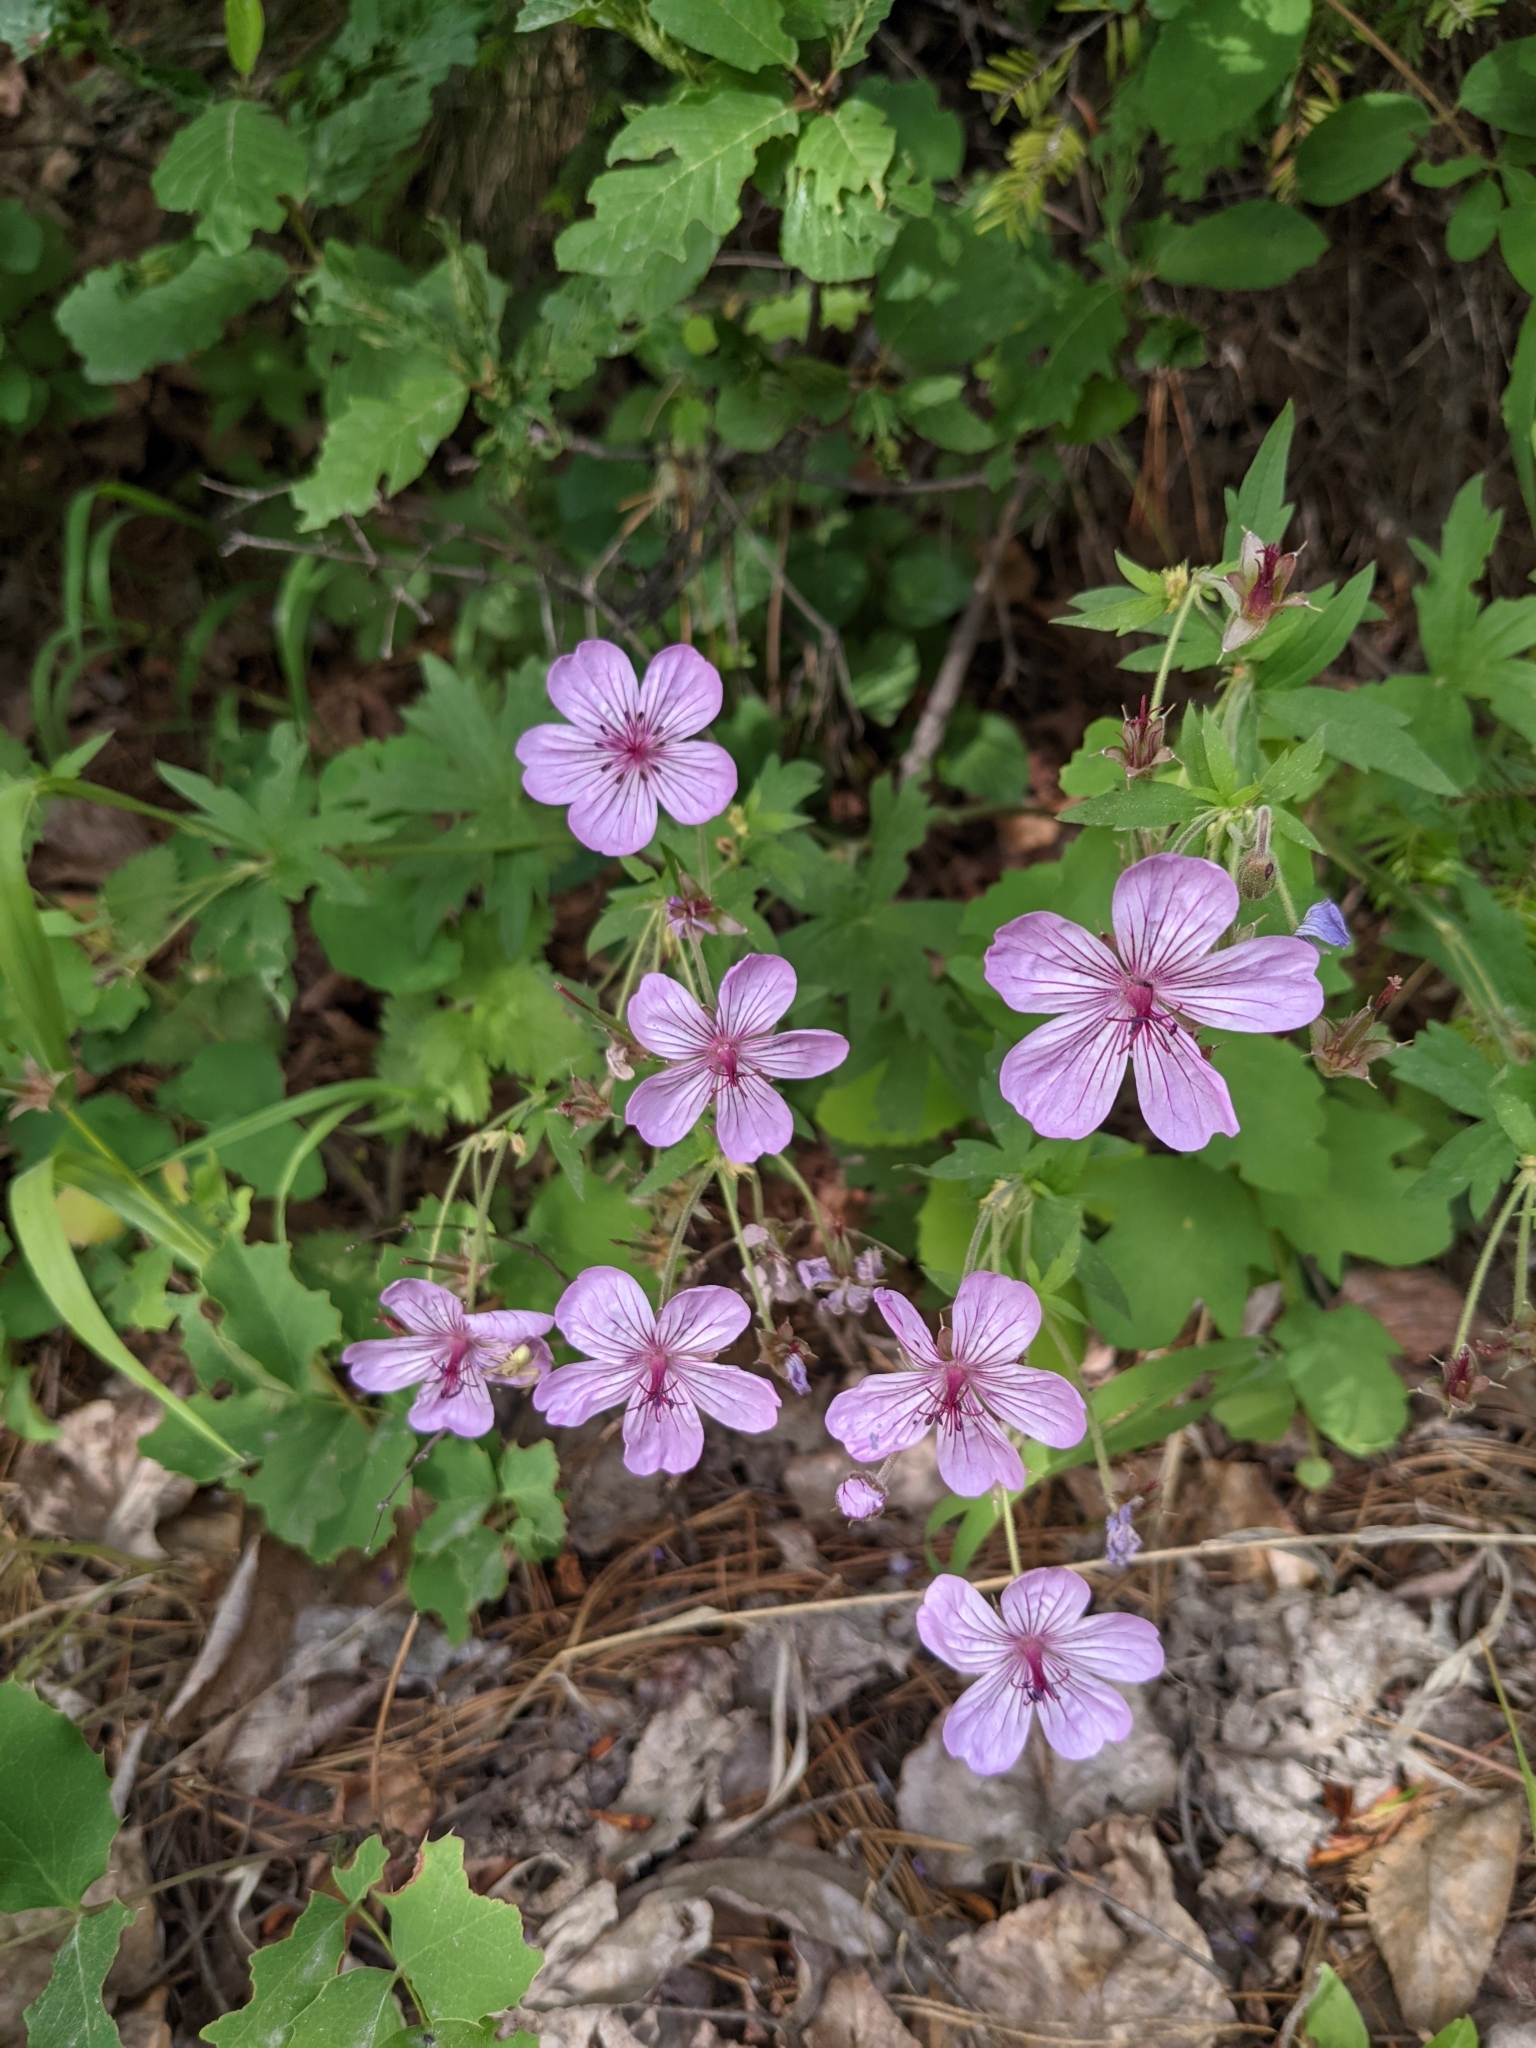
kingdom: Plantae
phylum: Tracheophyta
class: Magnoliopsida
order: Geraniales
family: Geraniaceae
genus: Geranium
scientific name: Geranium viscosissimum
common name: Purple geranium
